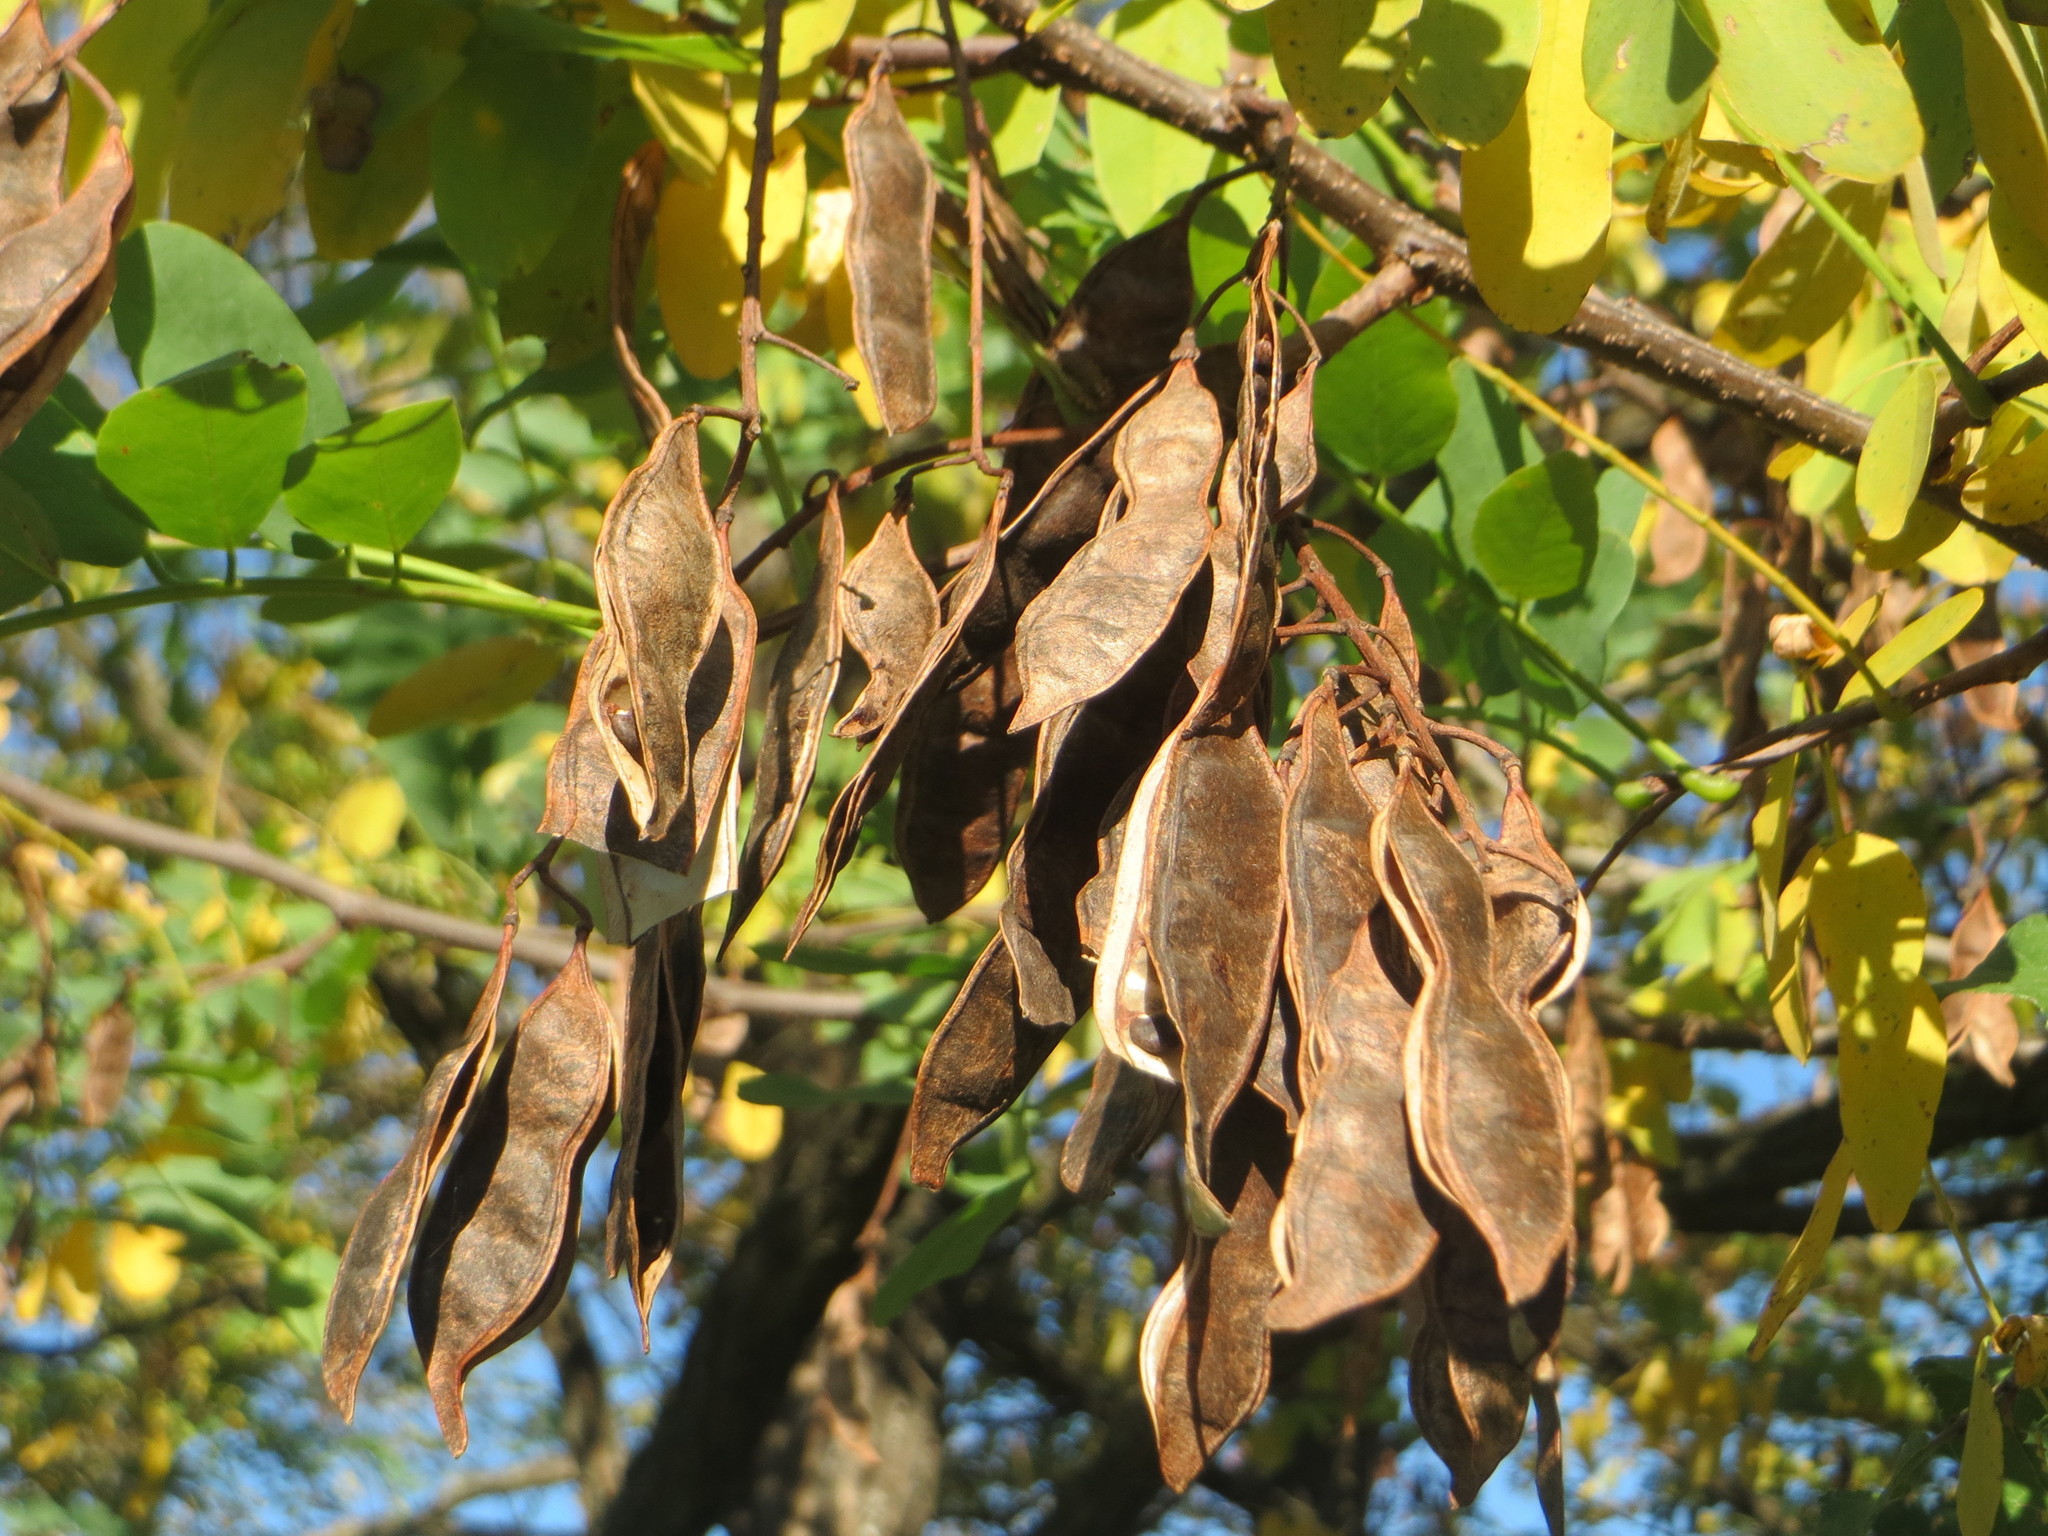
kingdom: Plantae
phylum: Tracheophyta
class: Magnoliopsida
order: Fabales
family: Fabaceae
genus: Robinia
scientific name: Robinia pseudoacacia
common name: Black locust
